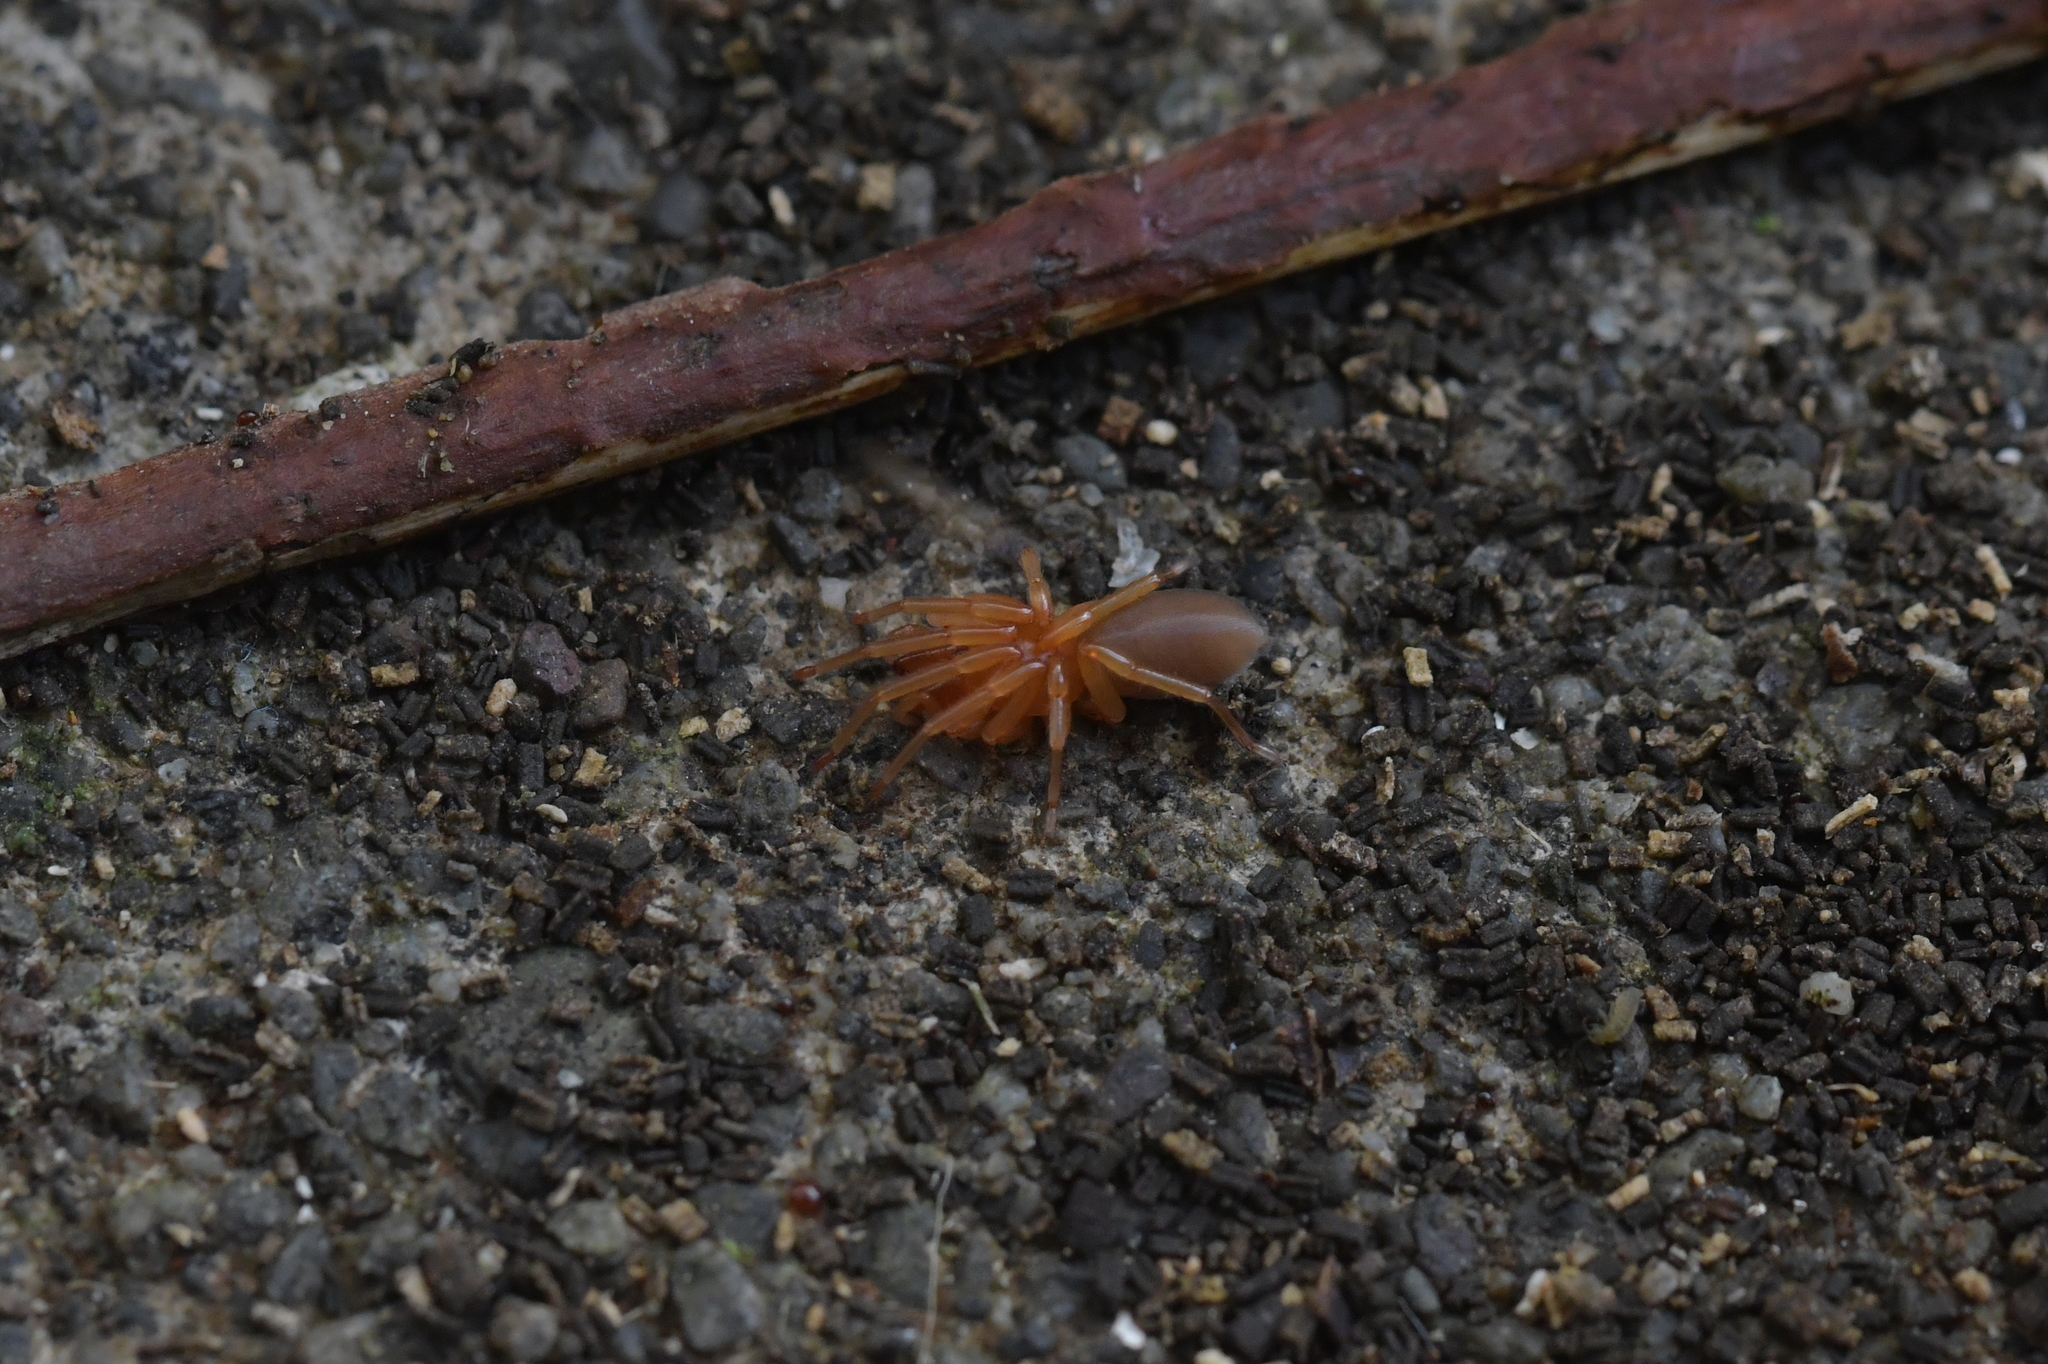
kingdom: Animalia
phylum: Arthropoda
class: Arachnida
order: Araneae
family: Dysderidae
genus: Dysdera
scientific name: Dysdera crocata
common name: Woodlouse spider
